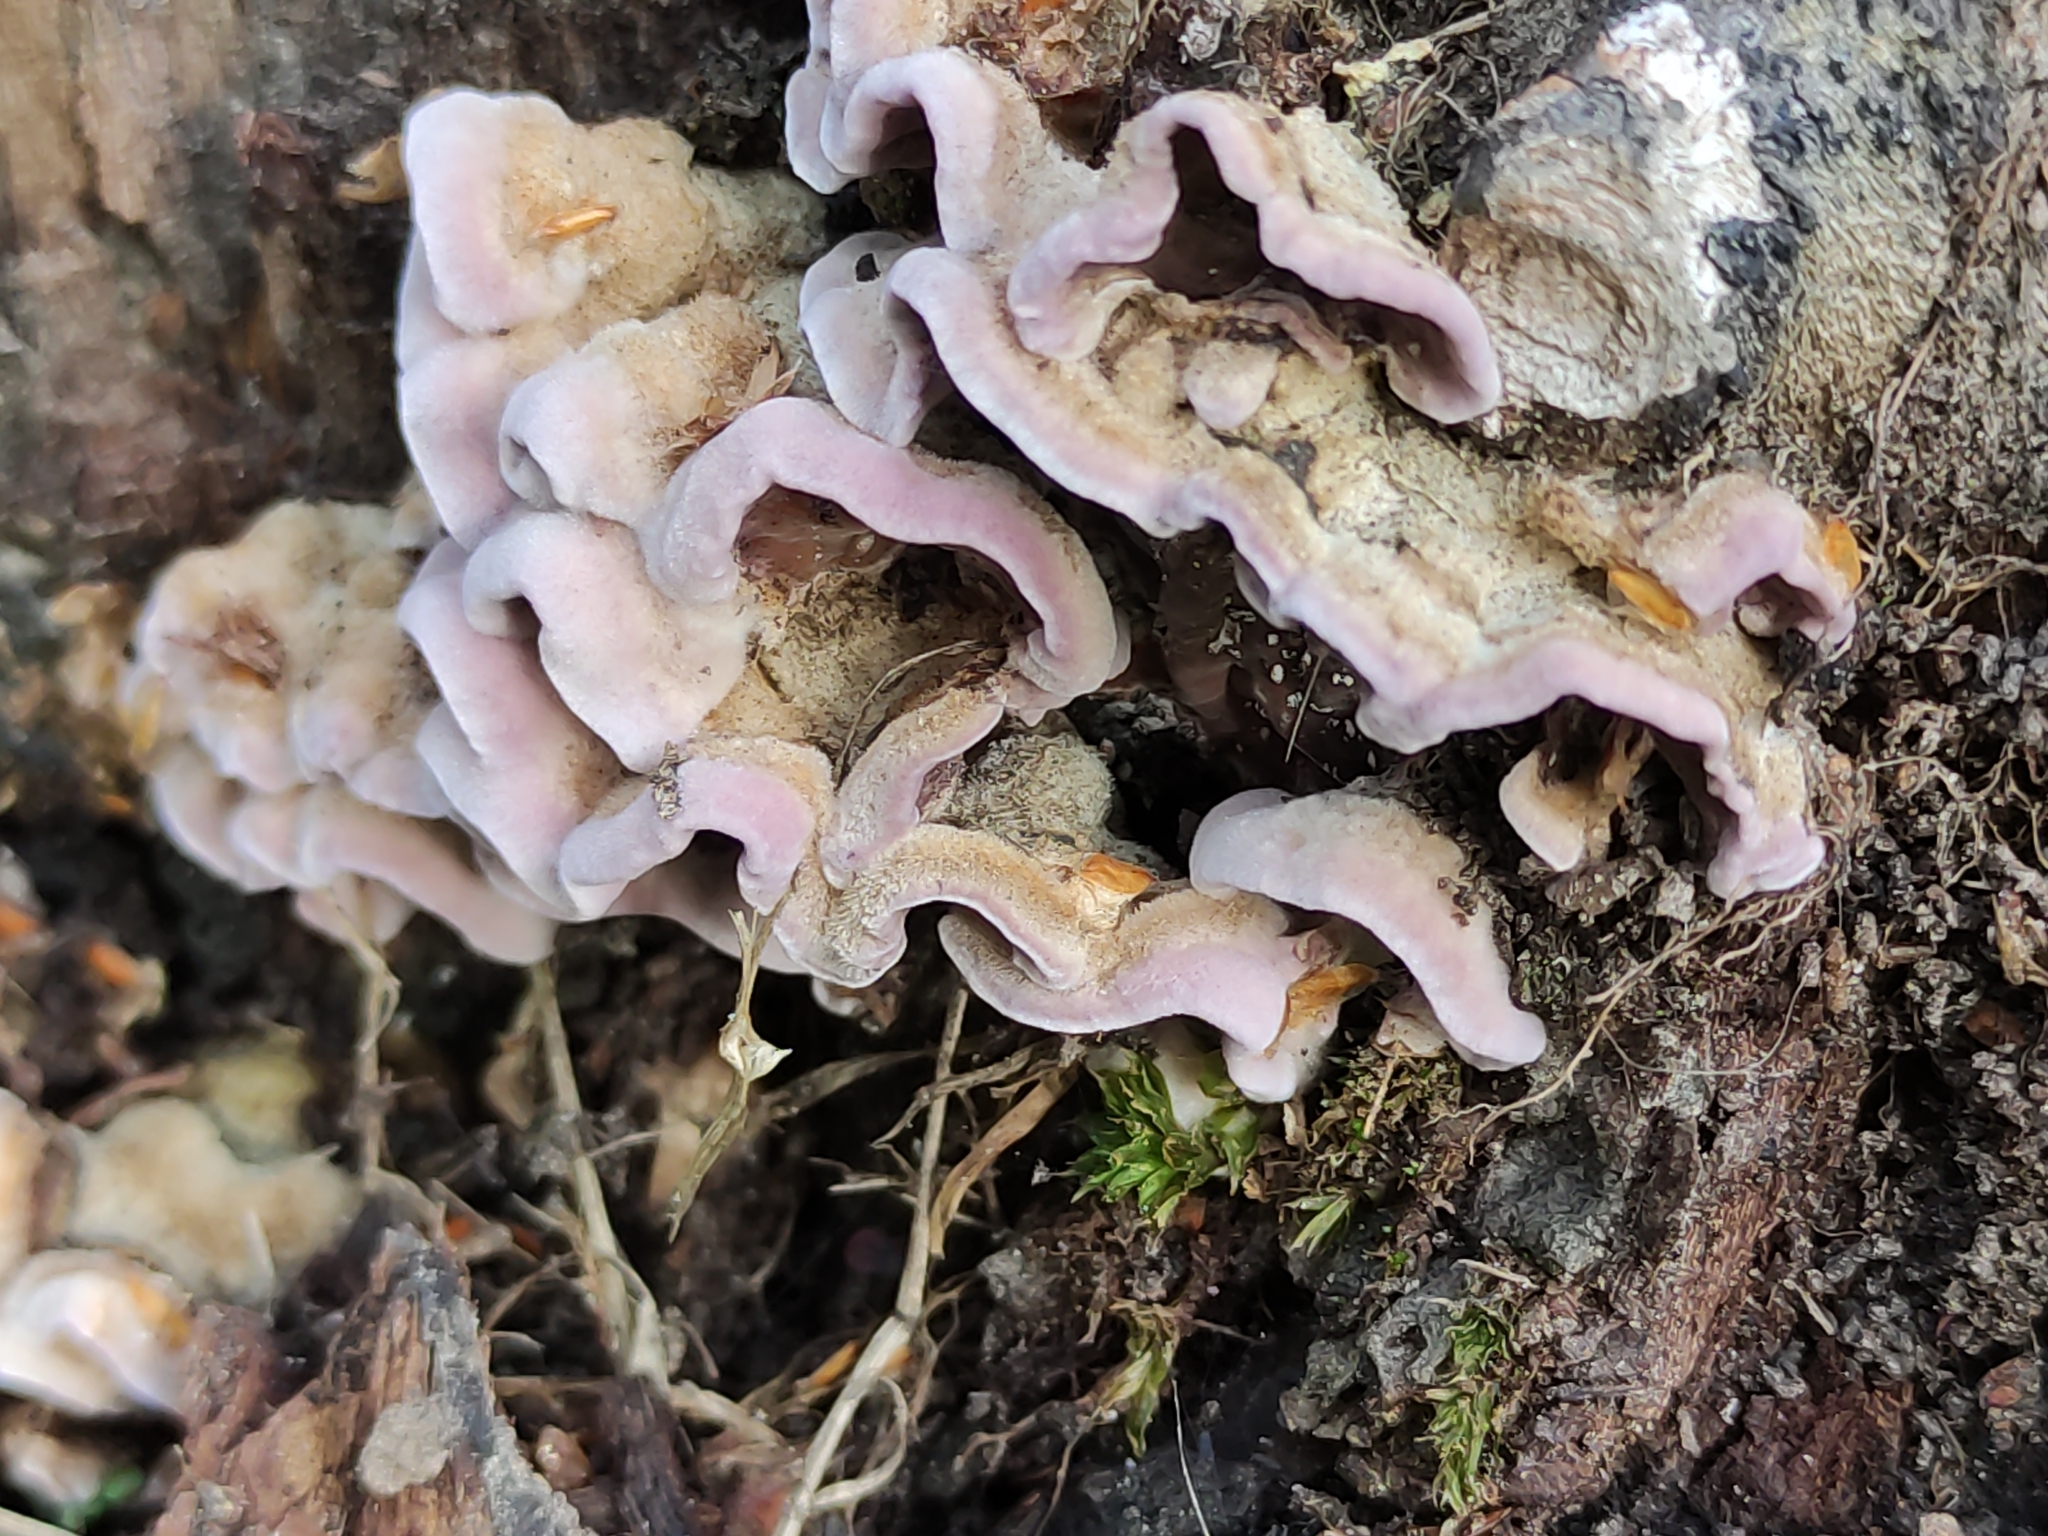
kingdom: Fungi
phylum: Basidiomycota
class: Agaricomycetes
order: Agaricales
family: Cyphellaceae
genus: Chondrostereum
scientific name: Chondrostereum purpureum
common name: Silver leaf disease
